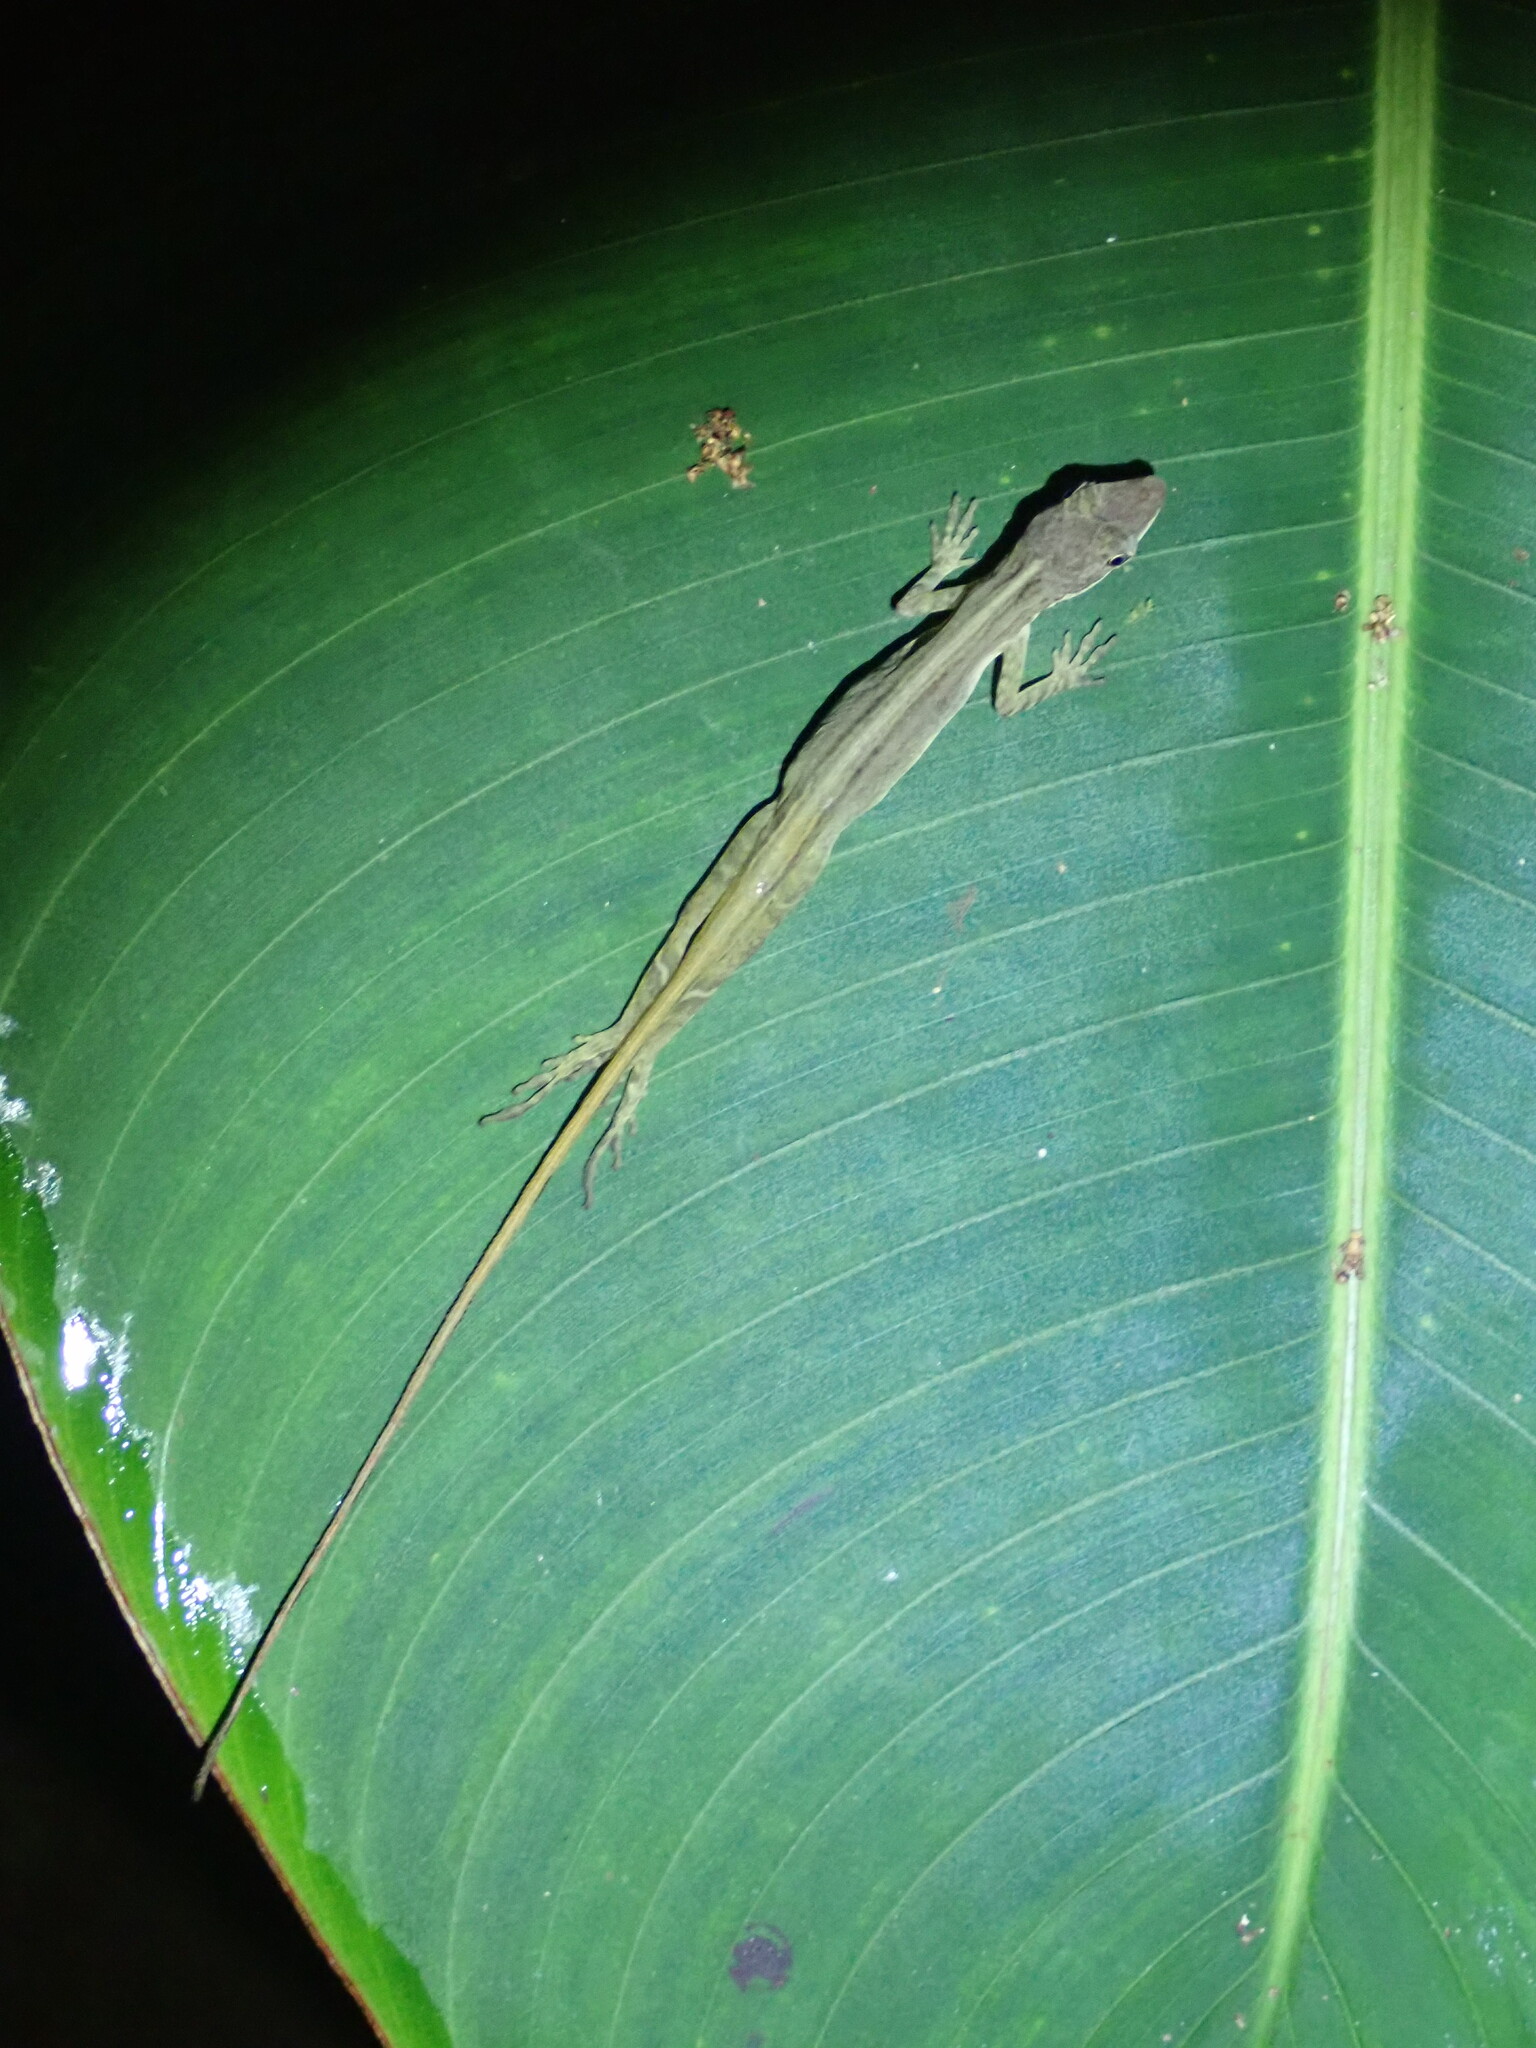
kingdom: Animalia
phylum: Chordata
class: Squamata
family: Dactyloidae
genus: Anolis
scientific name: Anolis limifrons
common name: Border anole
